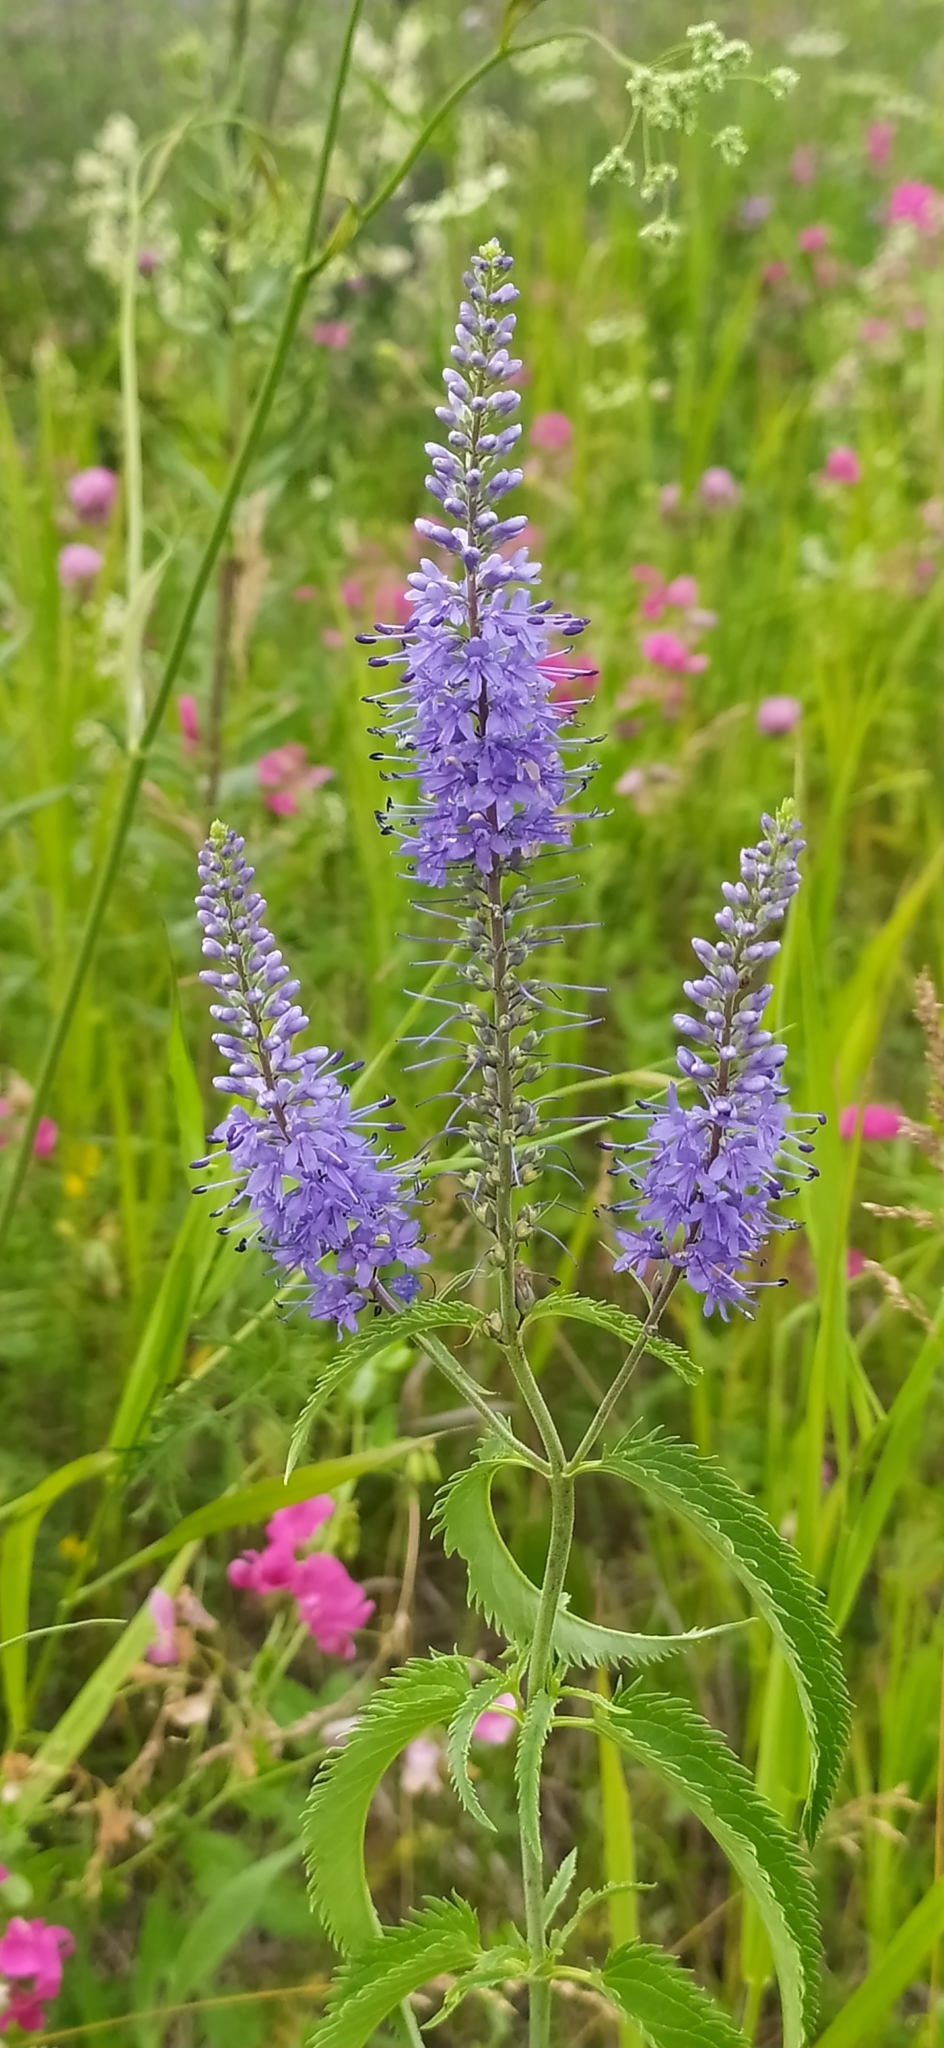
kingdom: Plantae
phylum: Tracheophyta
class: Magnoliopsida
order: Lamiales
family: Plantaginaceae
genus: Veronica
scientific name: Veronica longifolia
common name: Garden speedwell
